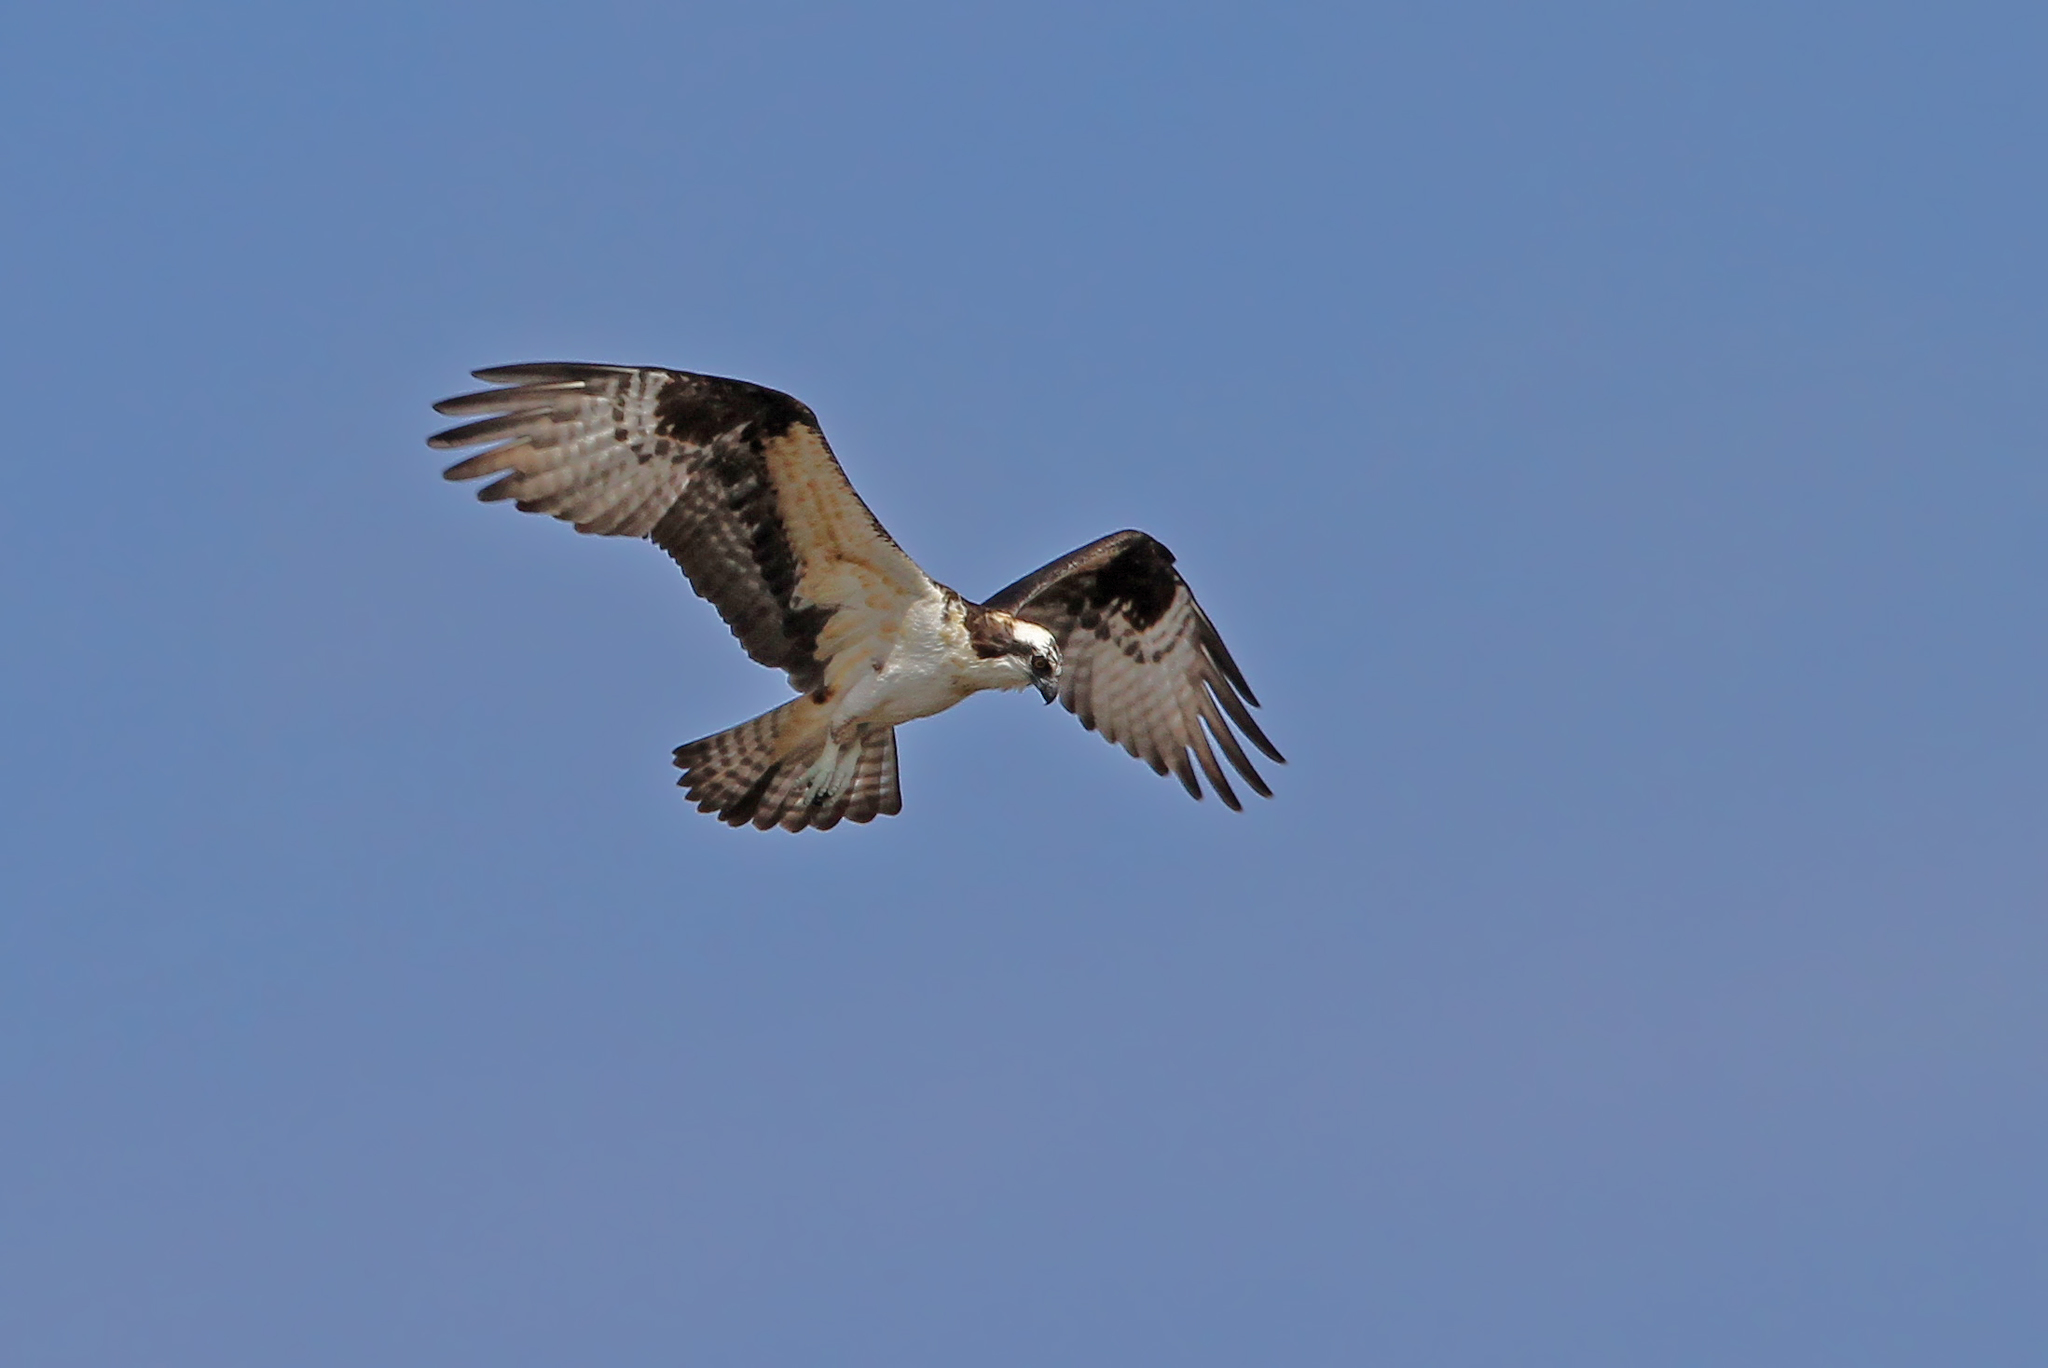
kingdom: Animalia
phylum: Chordata
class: Aves
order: Accipitriformes
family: Pandionidae
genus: Pandion
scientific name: Pandion haliaetus
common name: Osprey
